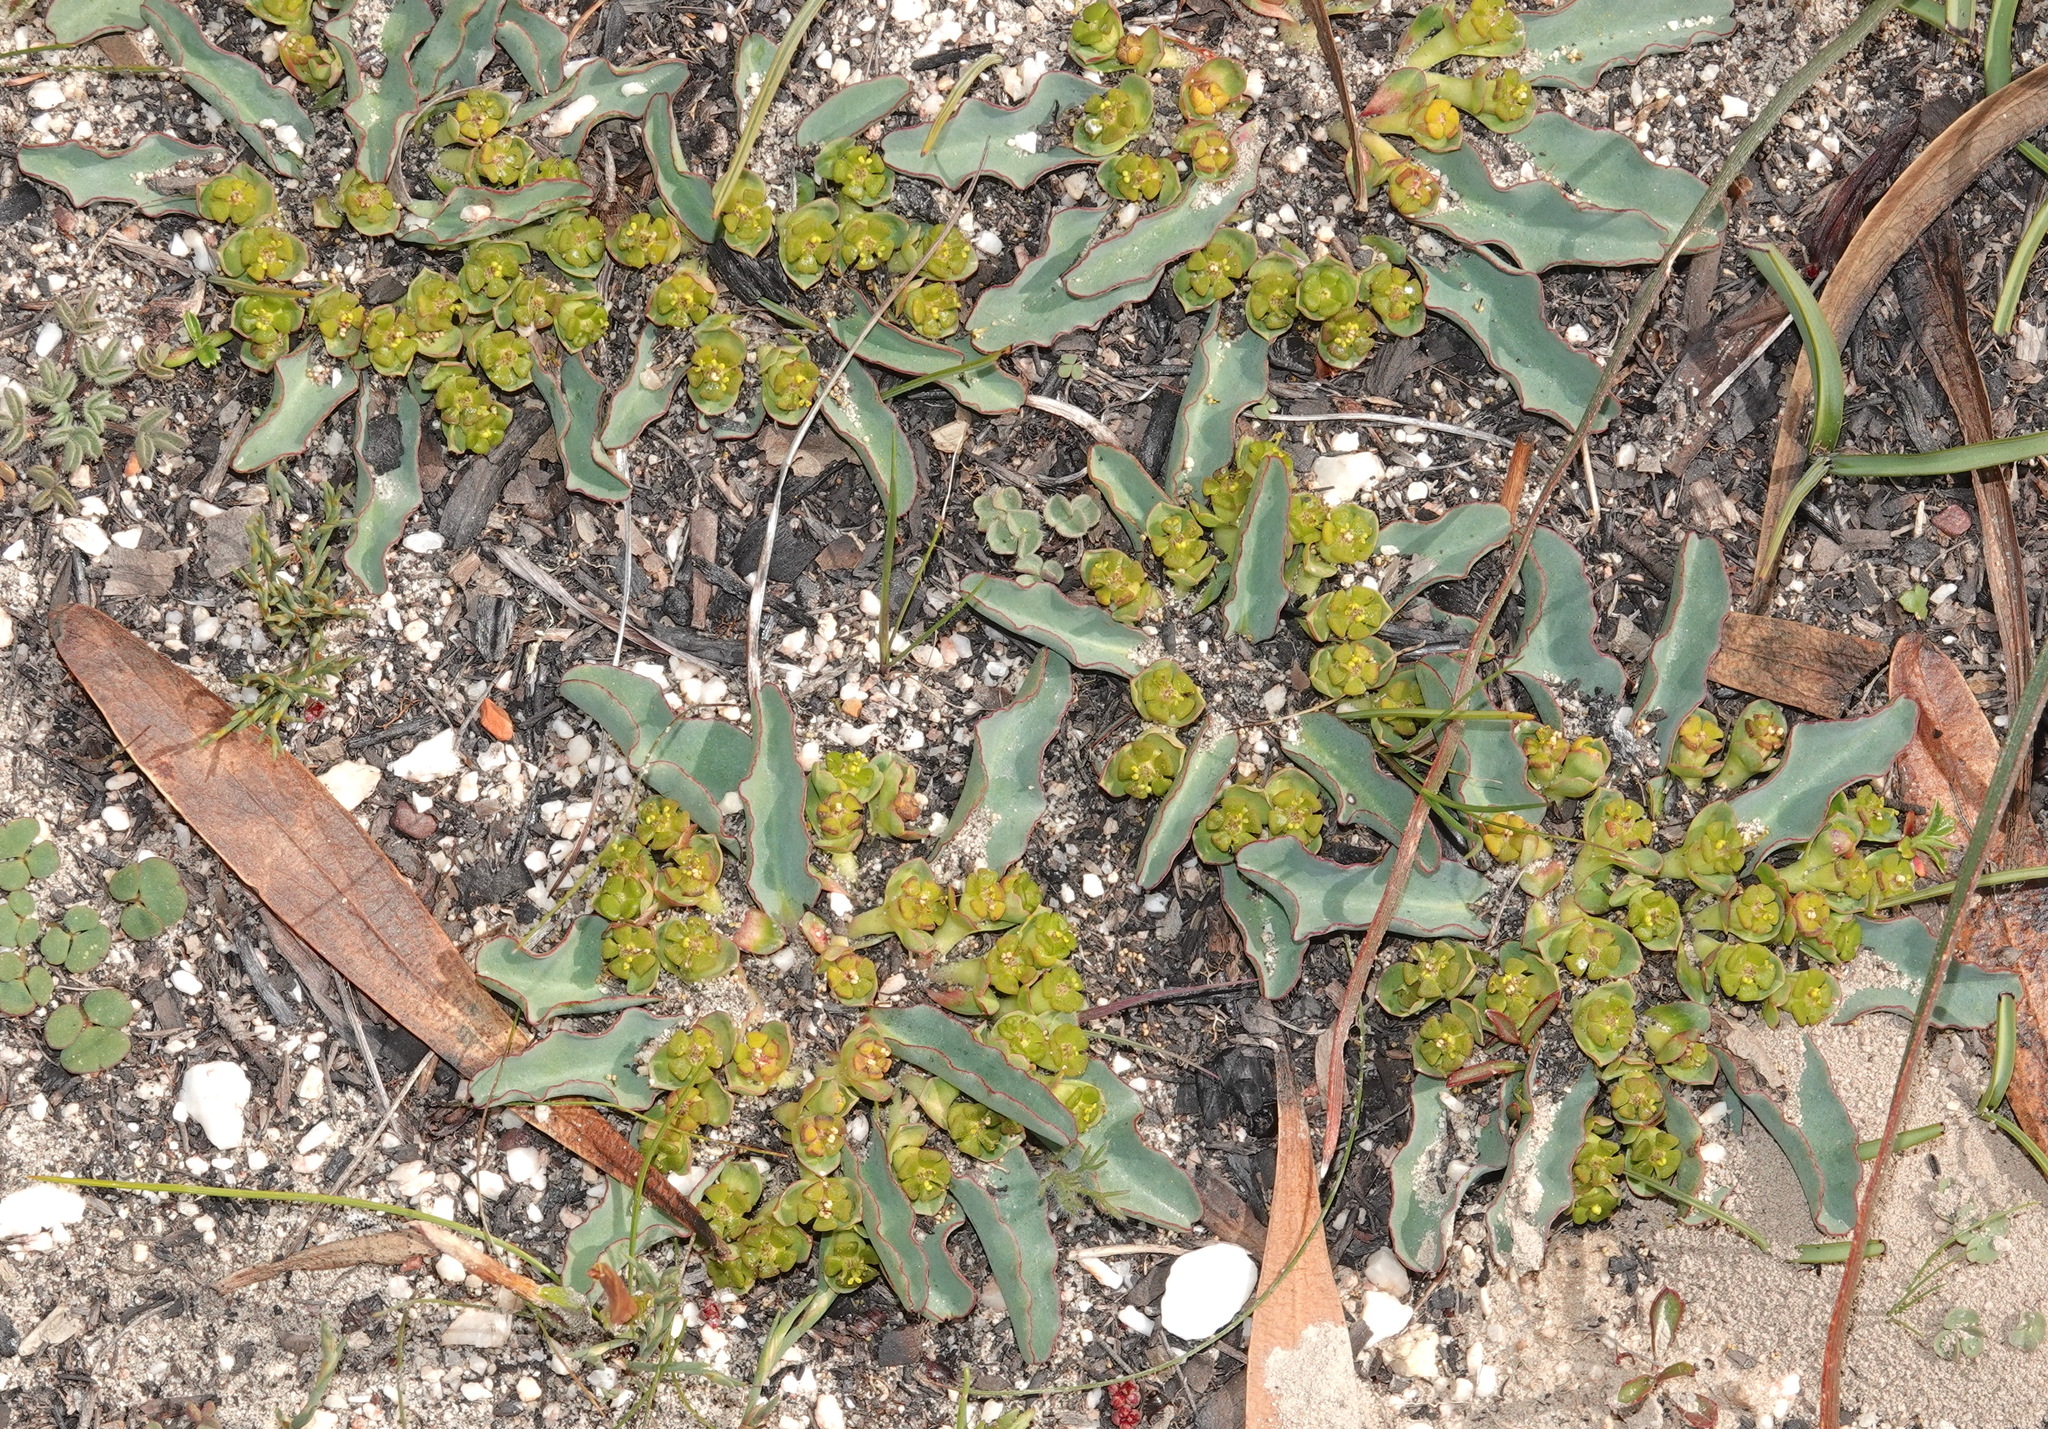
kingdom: Plantae
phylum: Tracheophyta
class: Magnoliopsida
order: Malpighiales
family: Euphorbiaceae
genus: Euphorbia
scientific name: Euphorbia tuberosa
